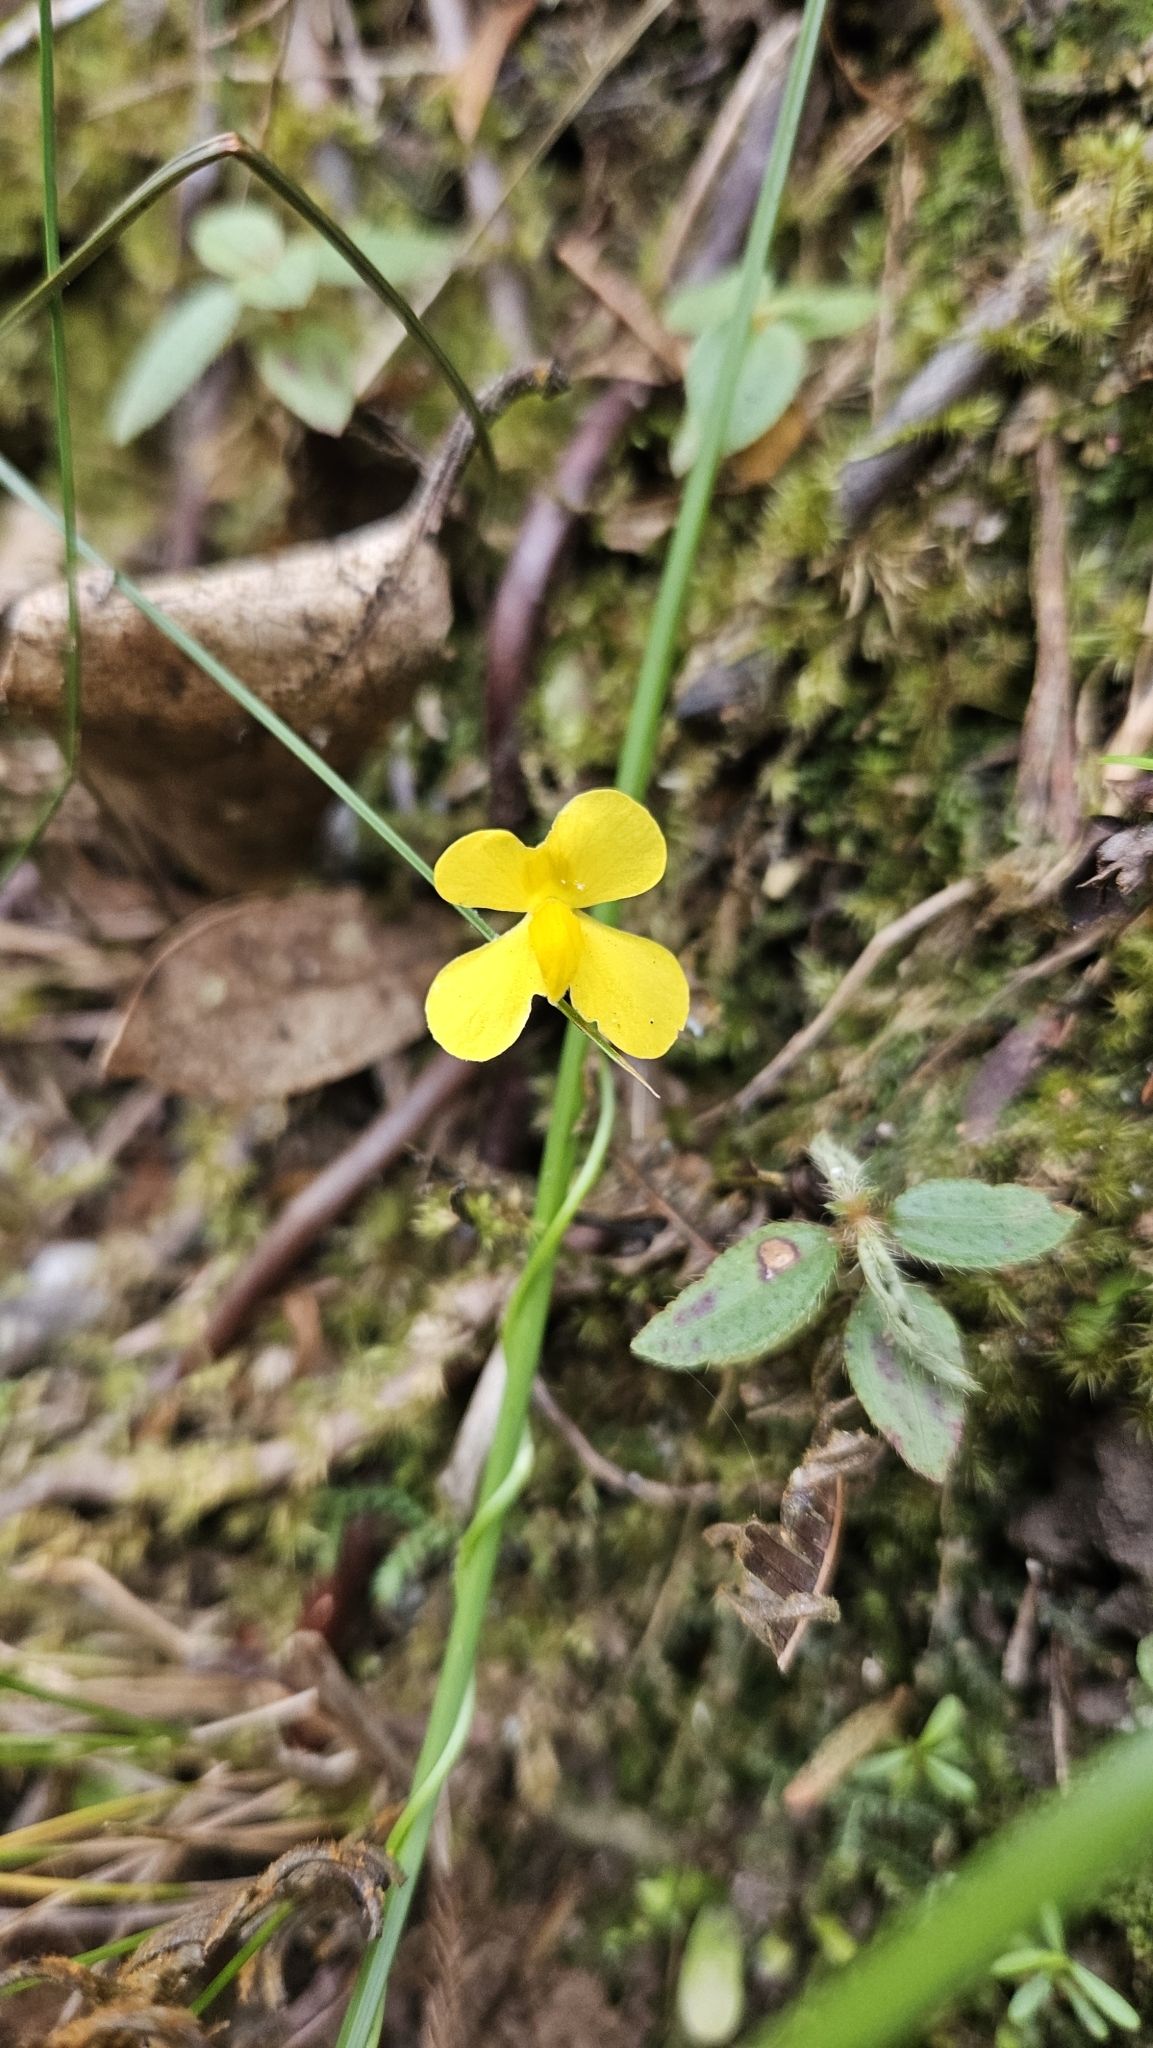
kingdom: Plantae
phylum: Tracheophyta
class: Magnoliopsida
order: Lamiales
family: Lentibulariaceae
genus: Utricularia
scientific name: Utricularia involvens
